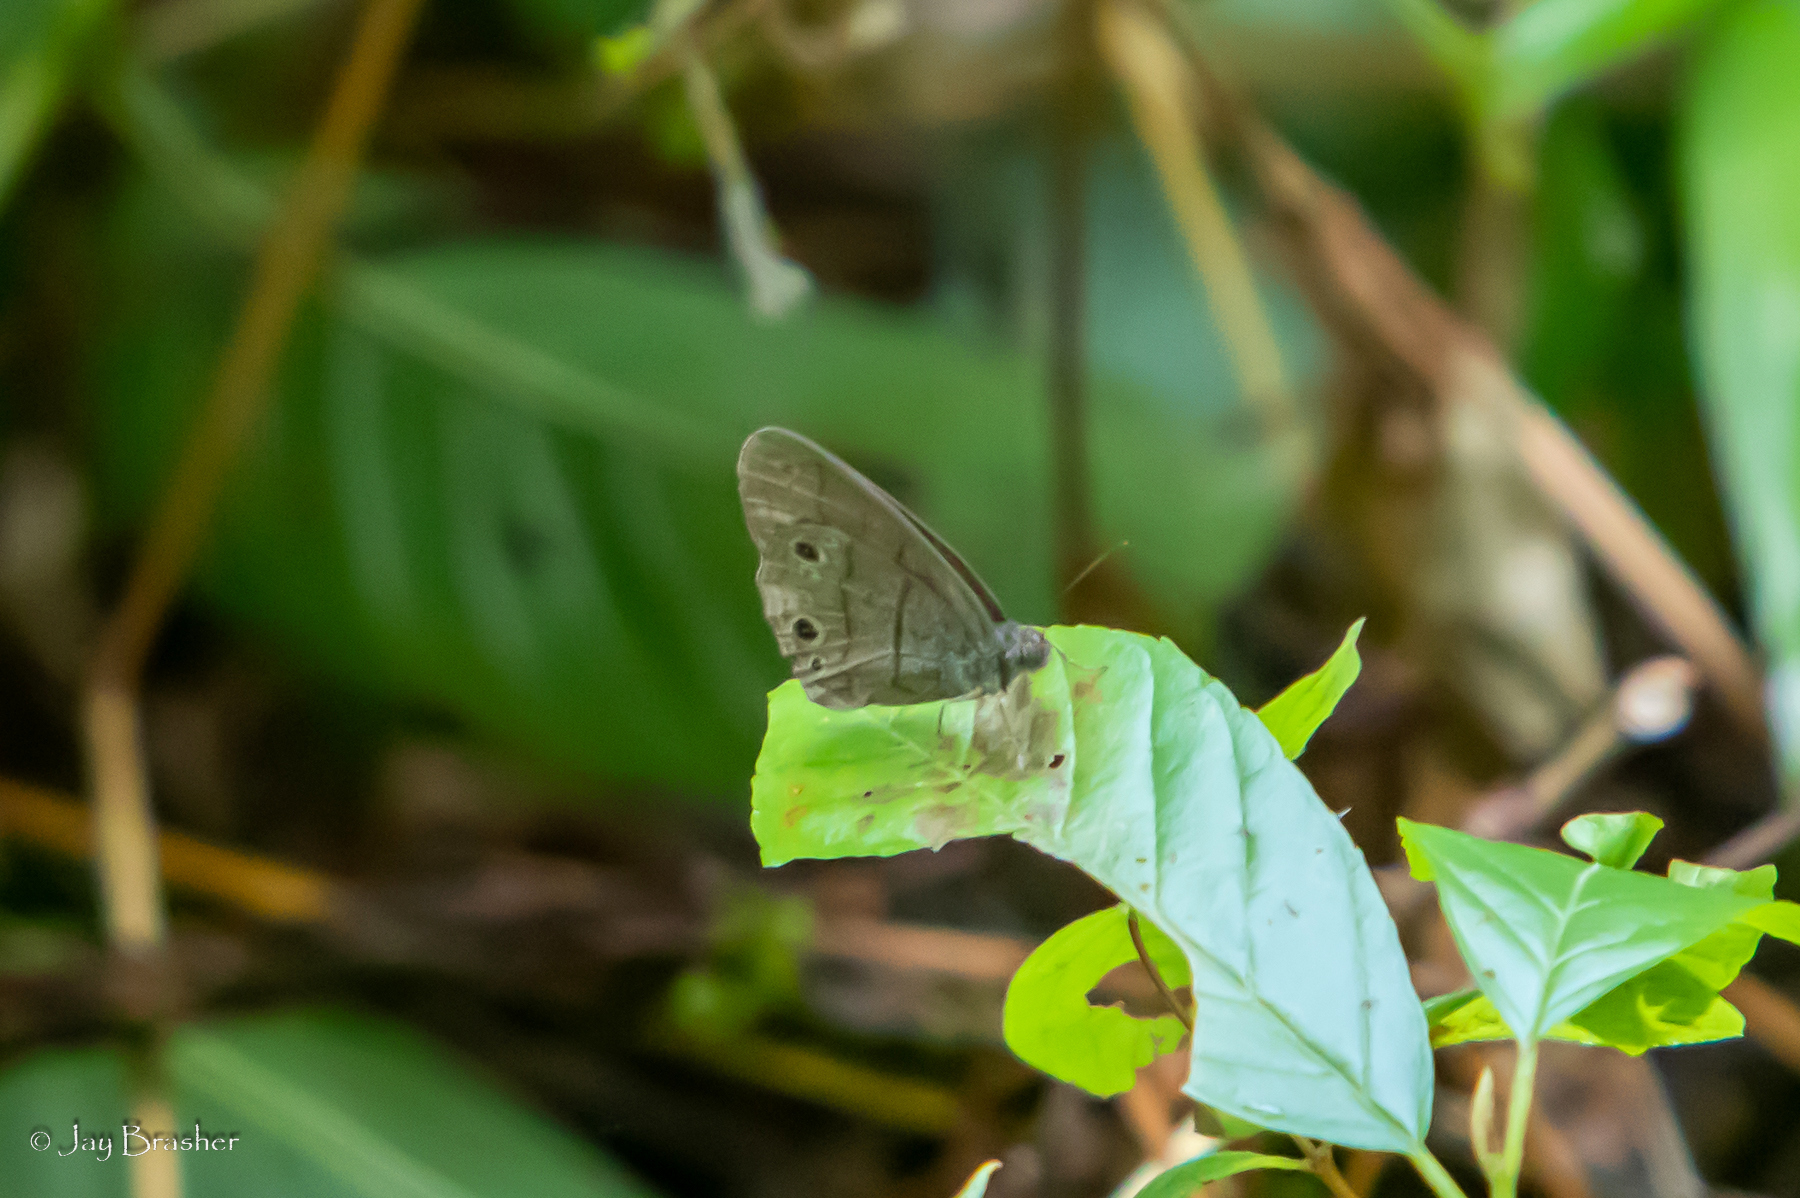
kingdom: Animalia
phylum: Arthropoda
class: Insecta
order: Lepidoptera
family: Nymphalidae
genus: Hermeuptychia
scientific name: Hermeuptychia hermes
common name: Hermes satyr
